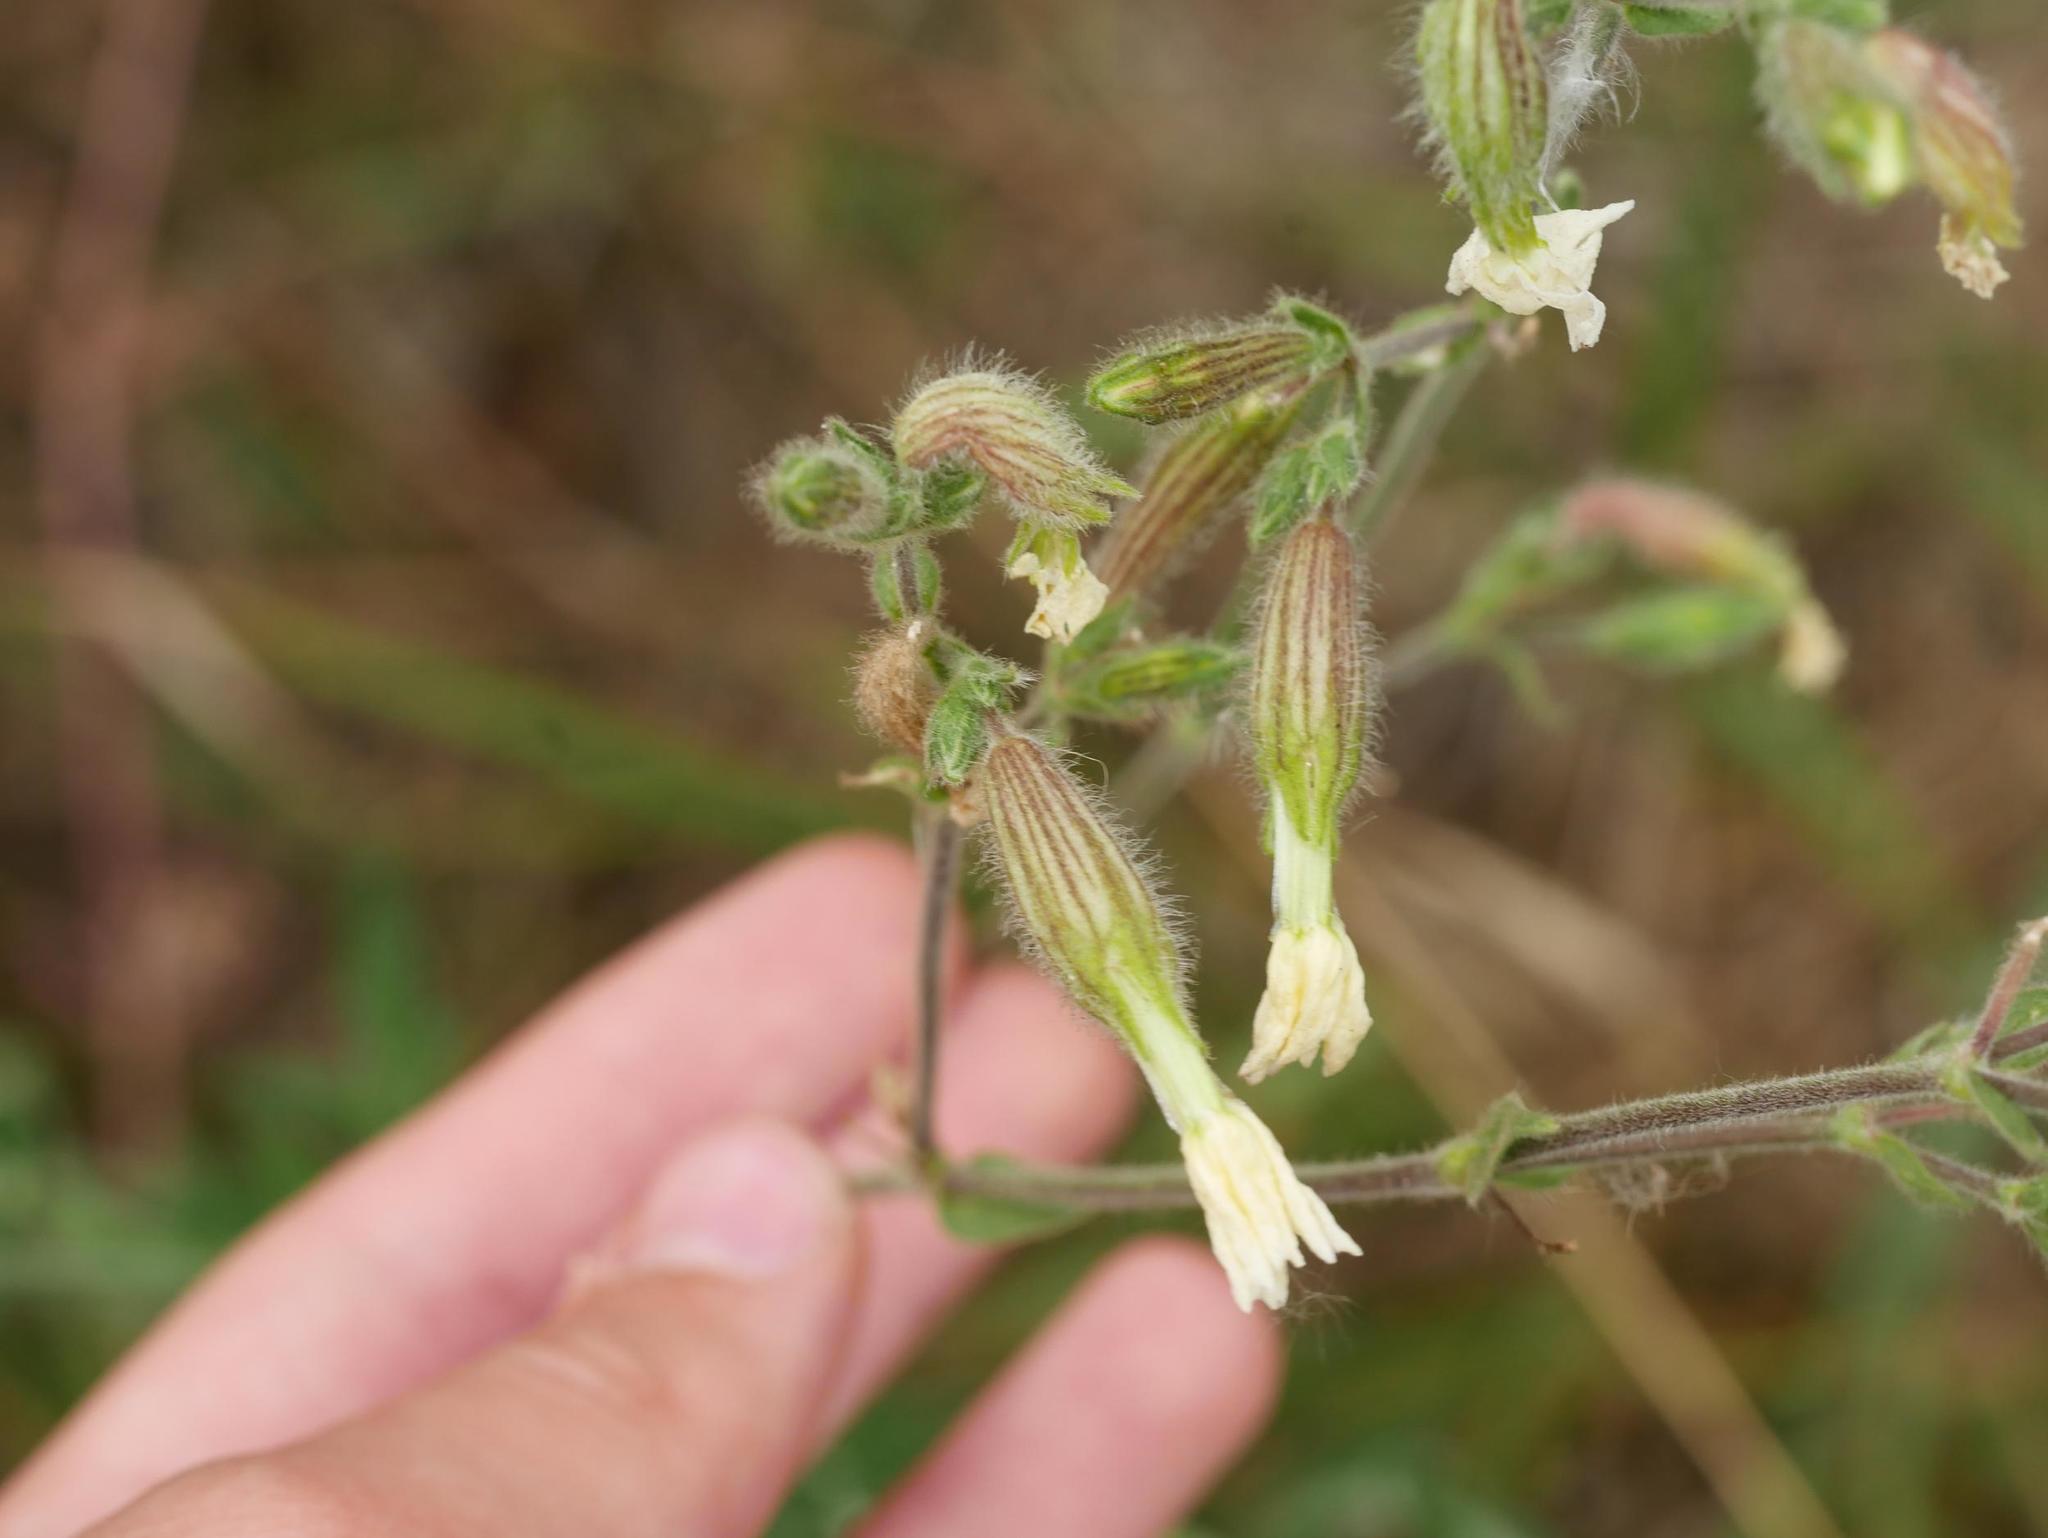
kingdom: Plantae
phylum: Tracheophyta
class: Magnoliopsida
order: Caryophyllales
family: Caryophyllaceae
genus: Silene
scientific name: Silene latifolia
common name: White campion
